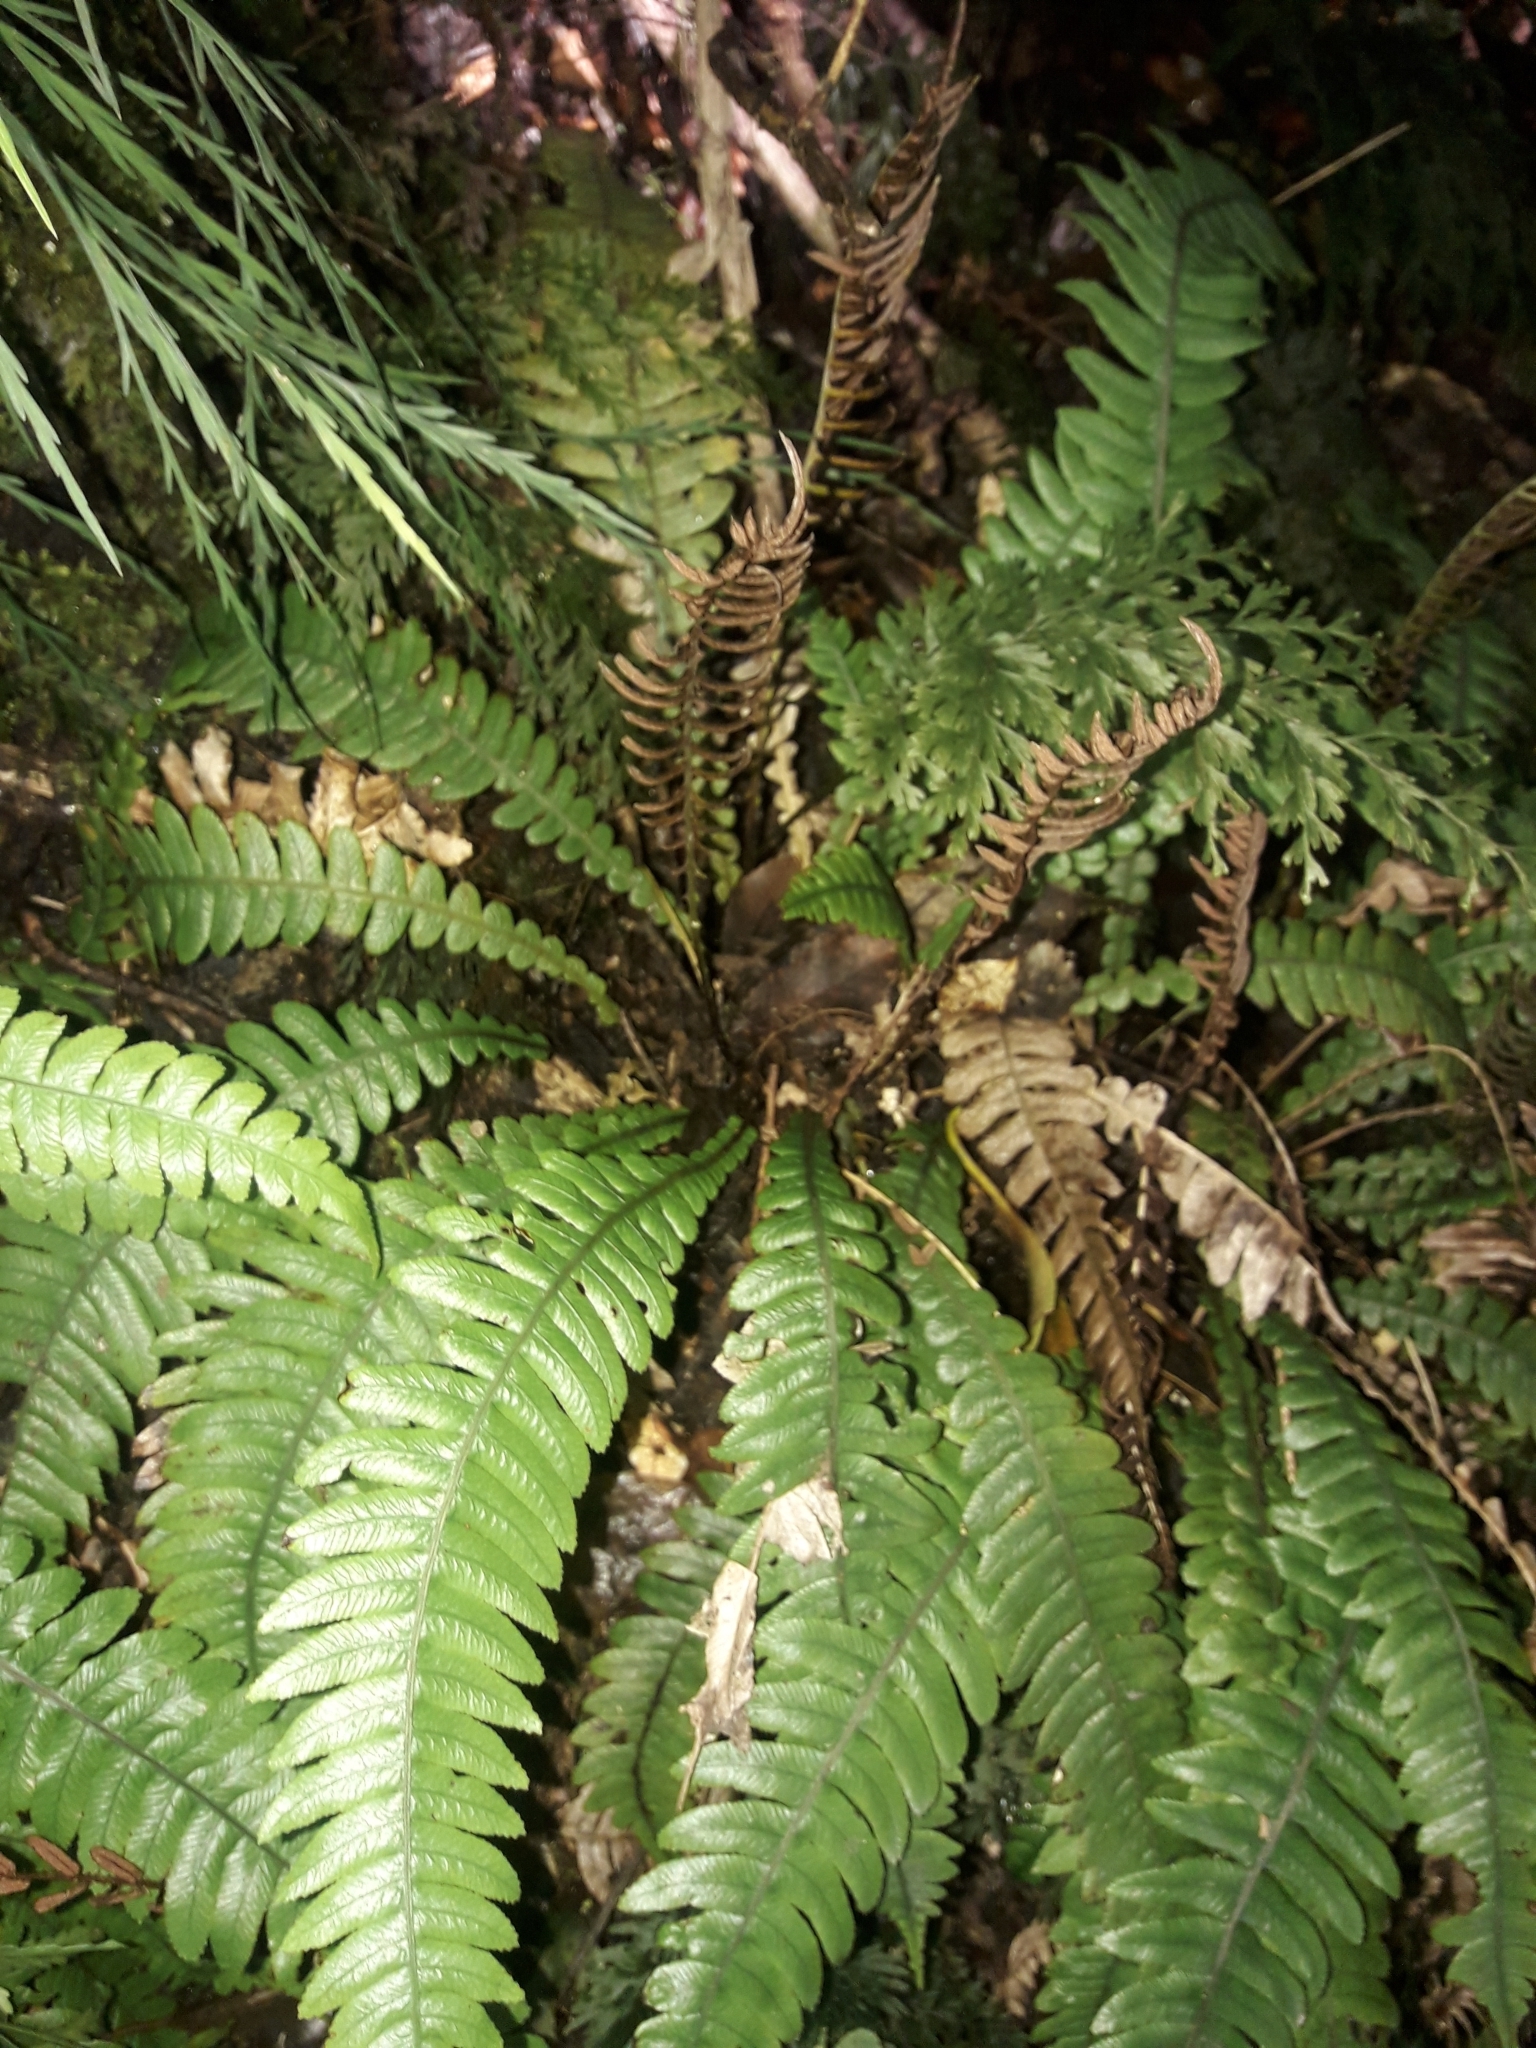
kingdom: Plantae
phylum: Tracheophyta
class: Polypodiopsida
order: Polypodiales
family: Blechnaceae
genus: Austroblechnum
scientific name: Austroblechnum lanceolatum
